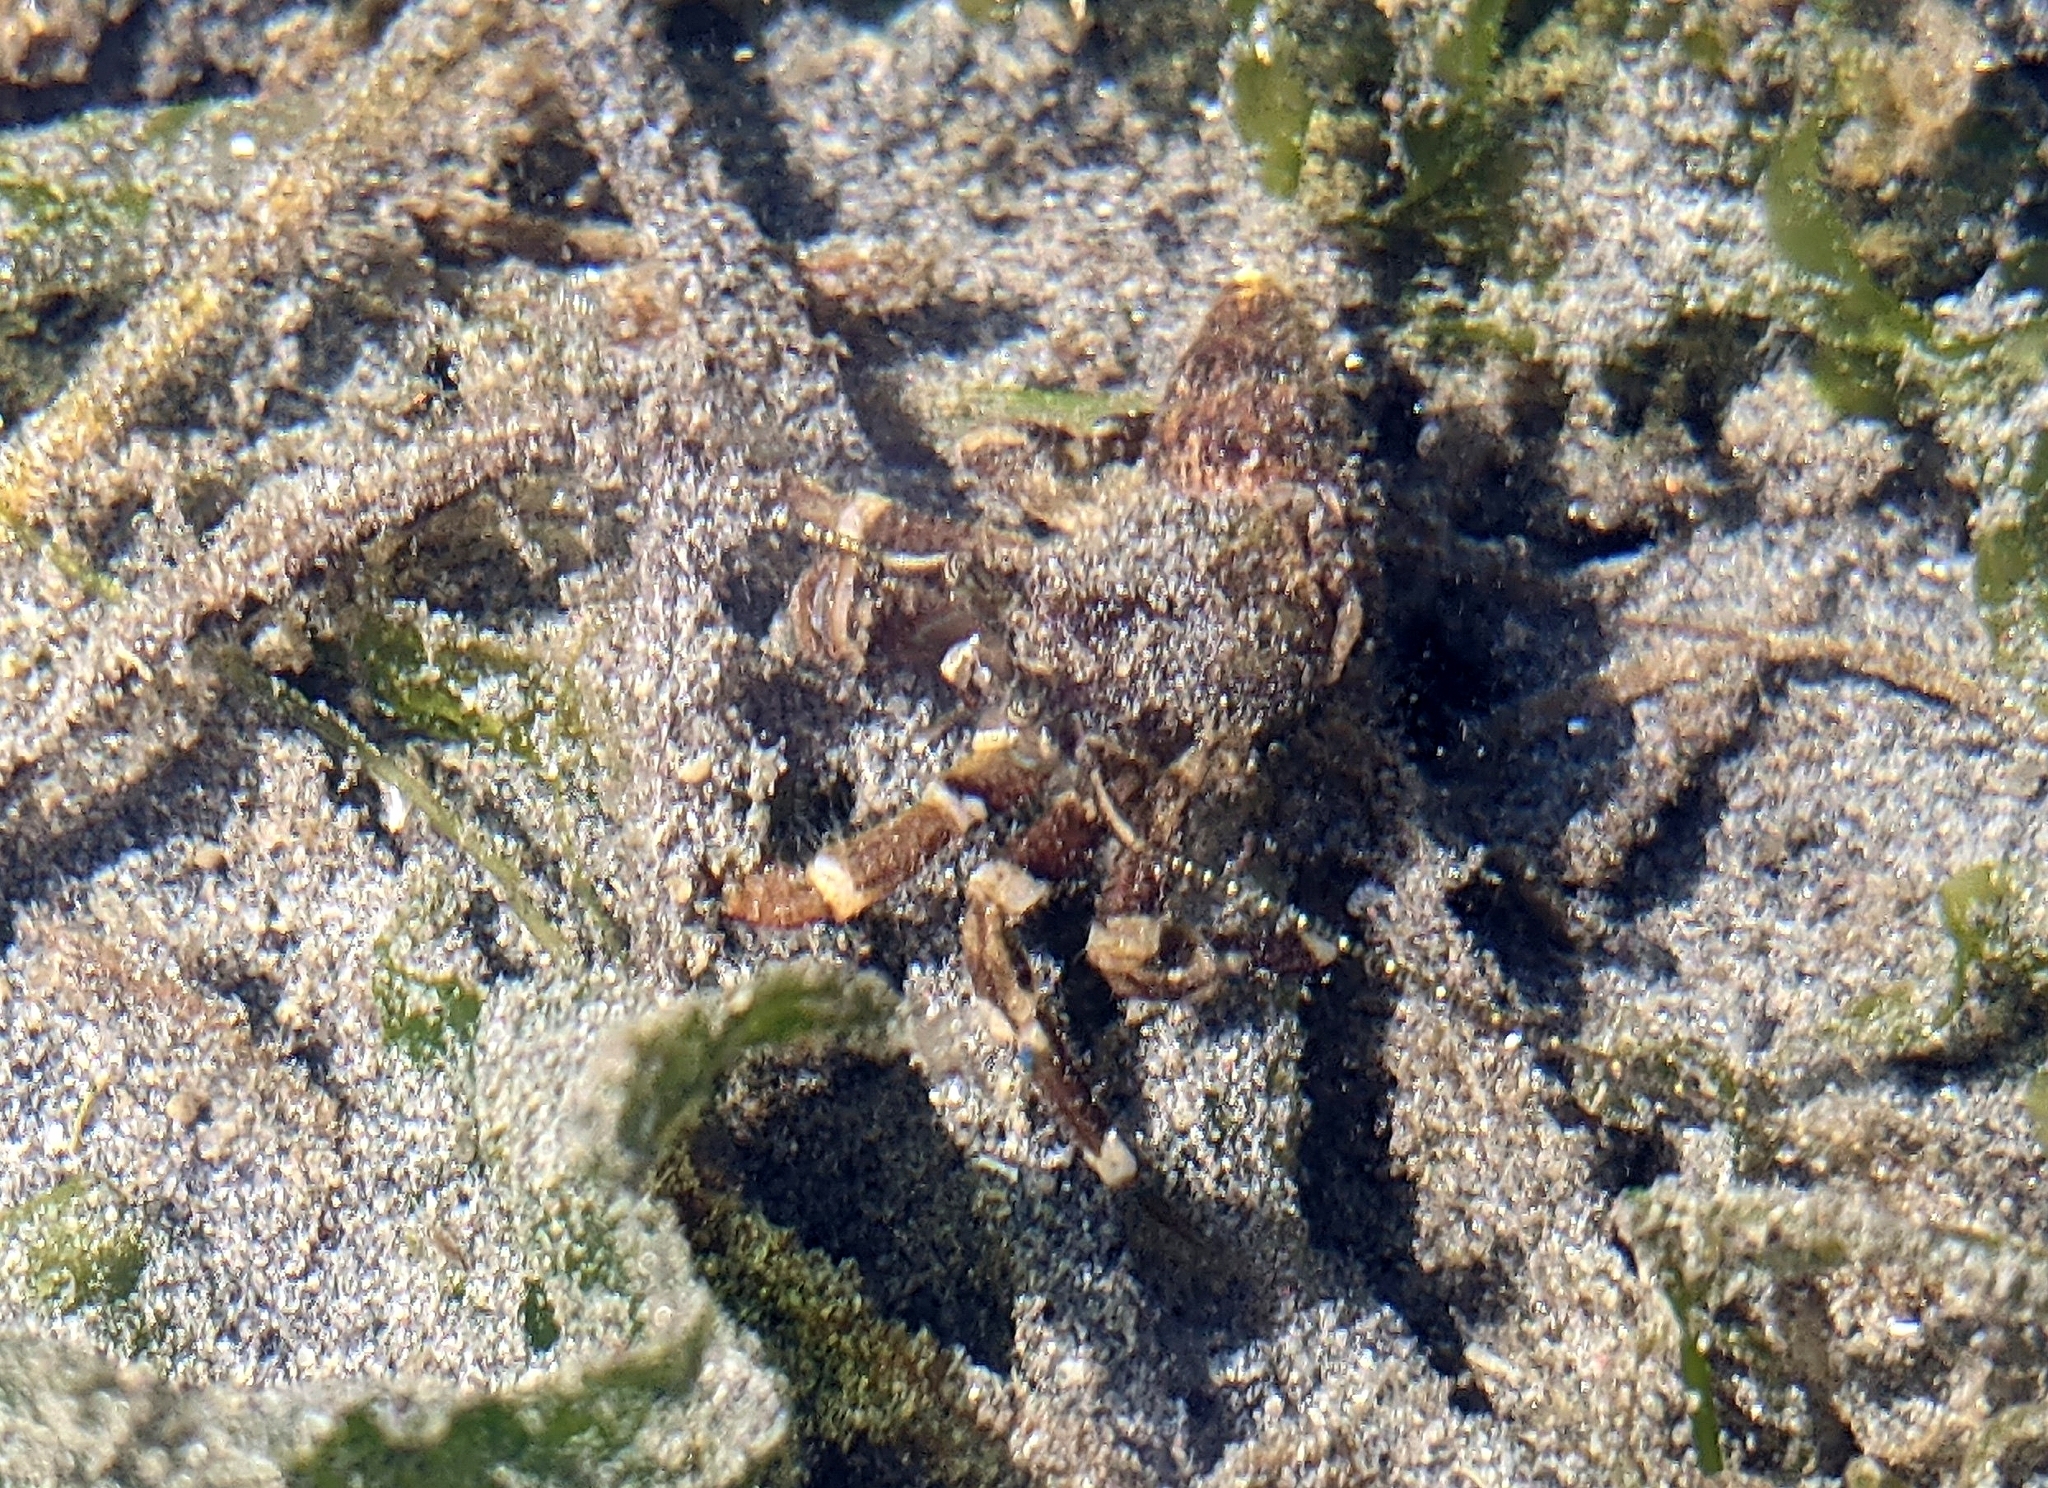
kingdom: Animalia
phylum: Arthropoda
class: Malacostraca
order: Decapoda
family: Paguridae
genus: Pagurus
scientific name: Pagurus hirsutiusculus
